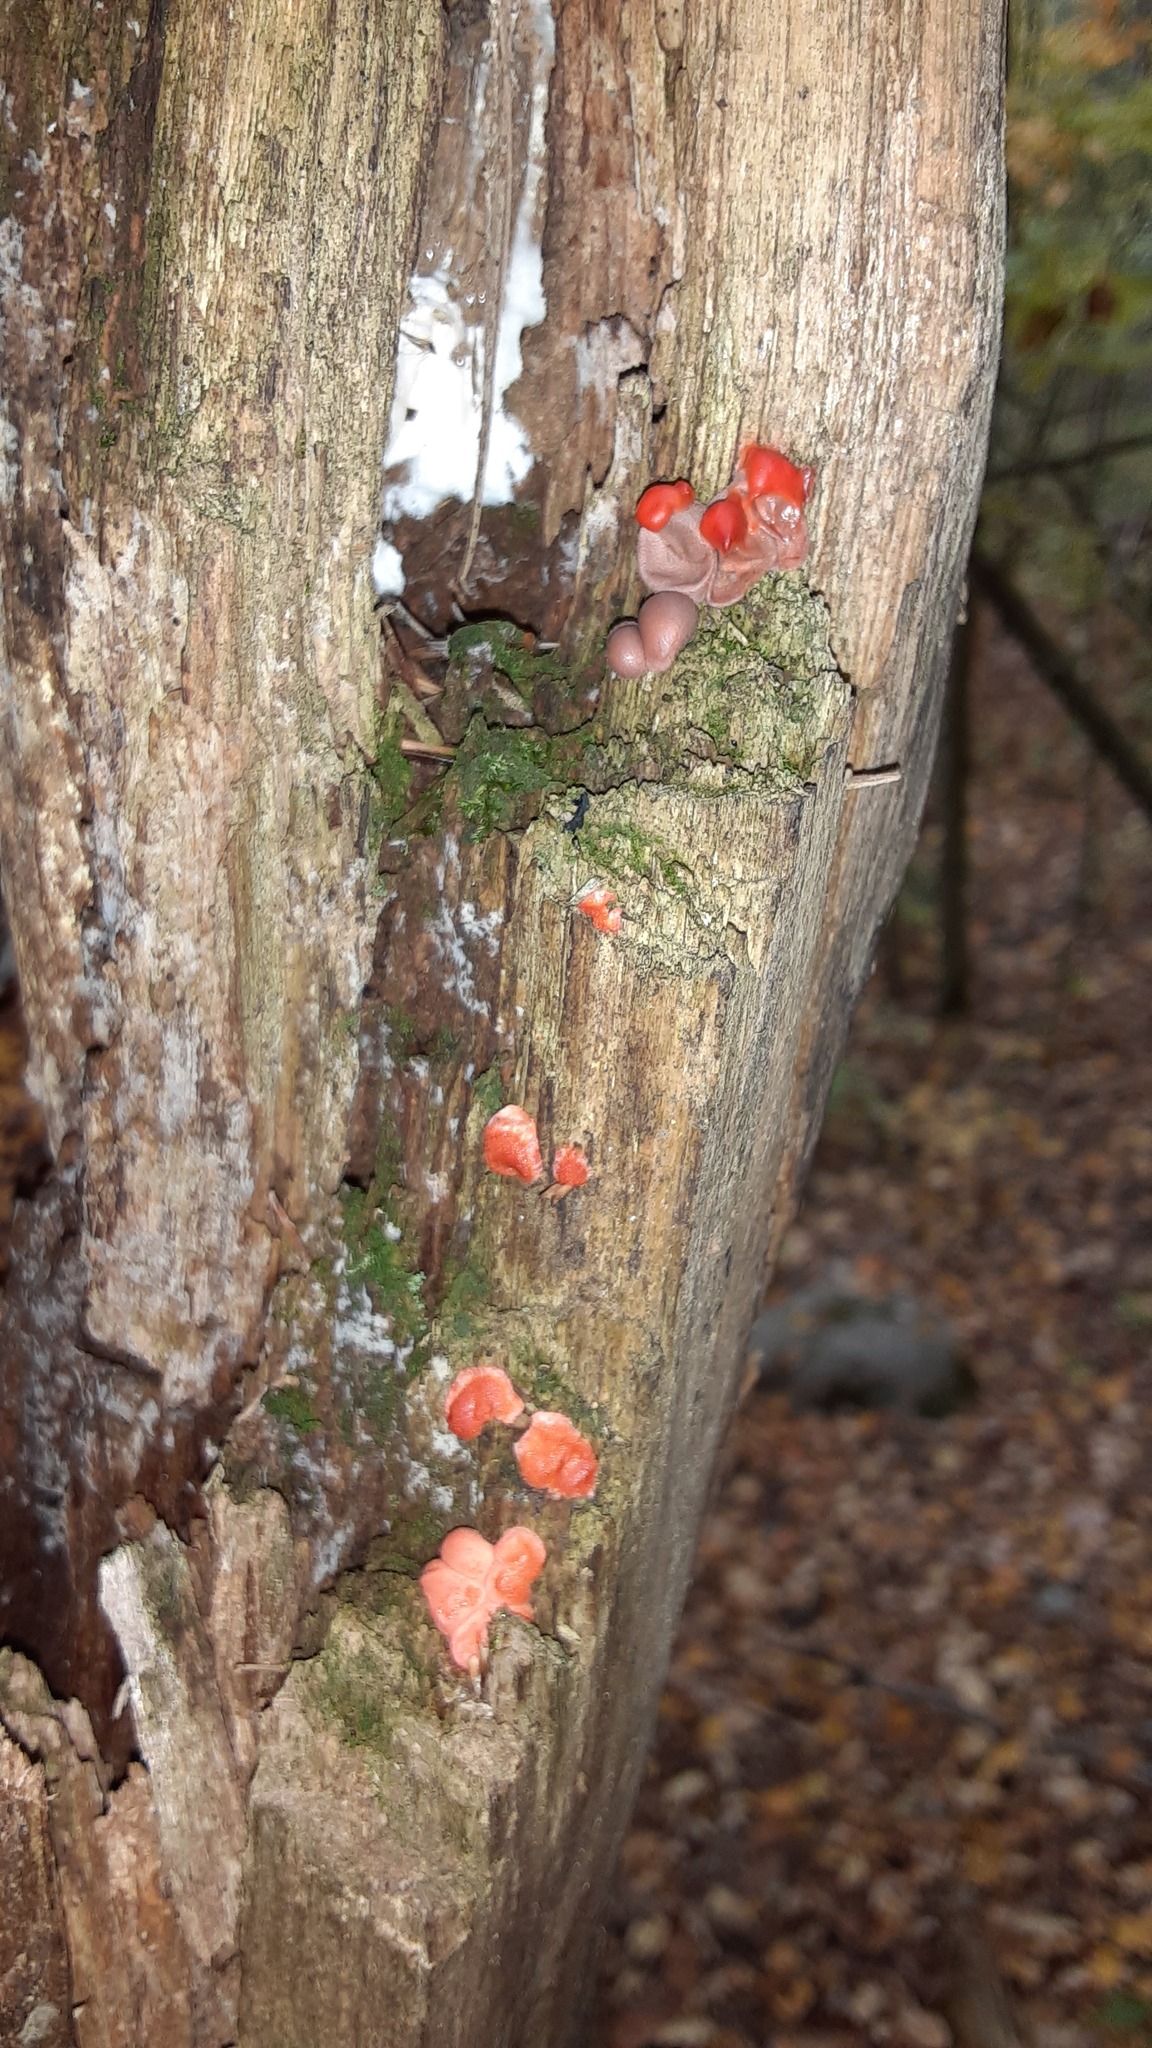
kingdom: Protozoa
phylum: Mycetozoa
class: Myxomycetes
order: Cribrariales
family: Tubiferaceae
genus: Lycogala
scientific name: Lycogala epidendrum
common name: Wolf's milk
